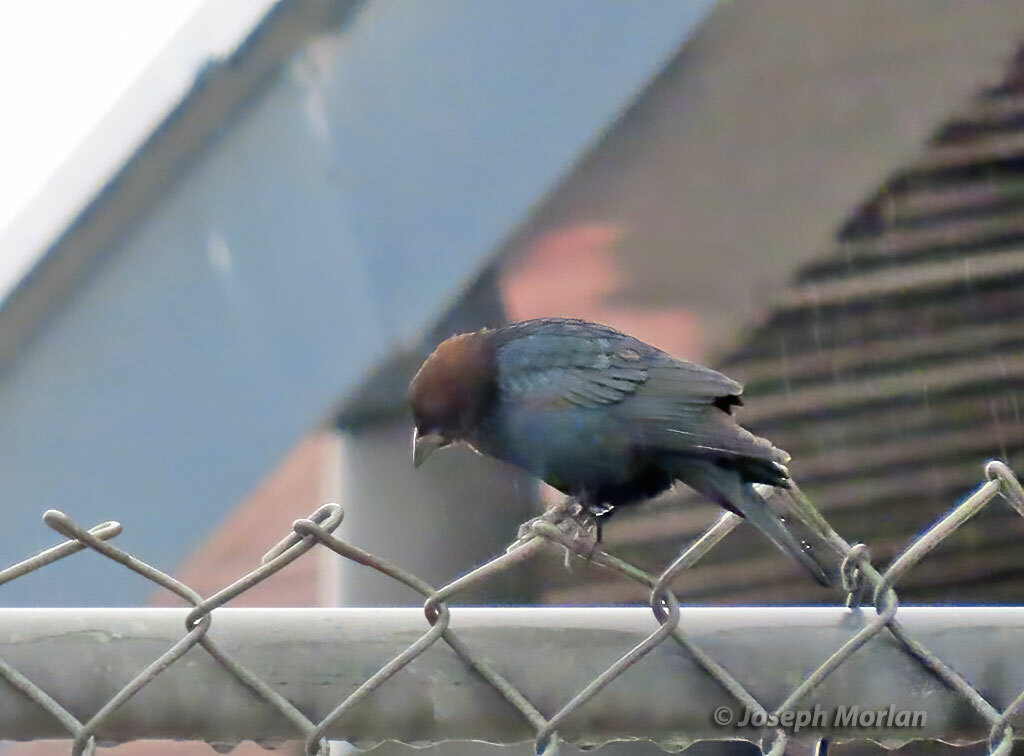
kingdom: Animalia
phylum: Chordata
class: Aves
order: Passeriformes
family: Icteridae
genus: Molothrus
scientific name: Molothrus ater
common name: Brown-headed cowbird
